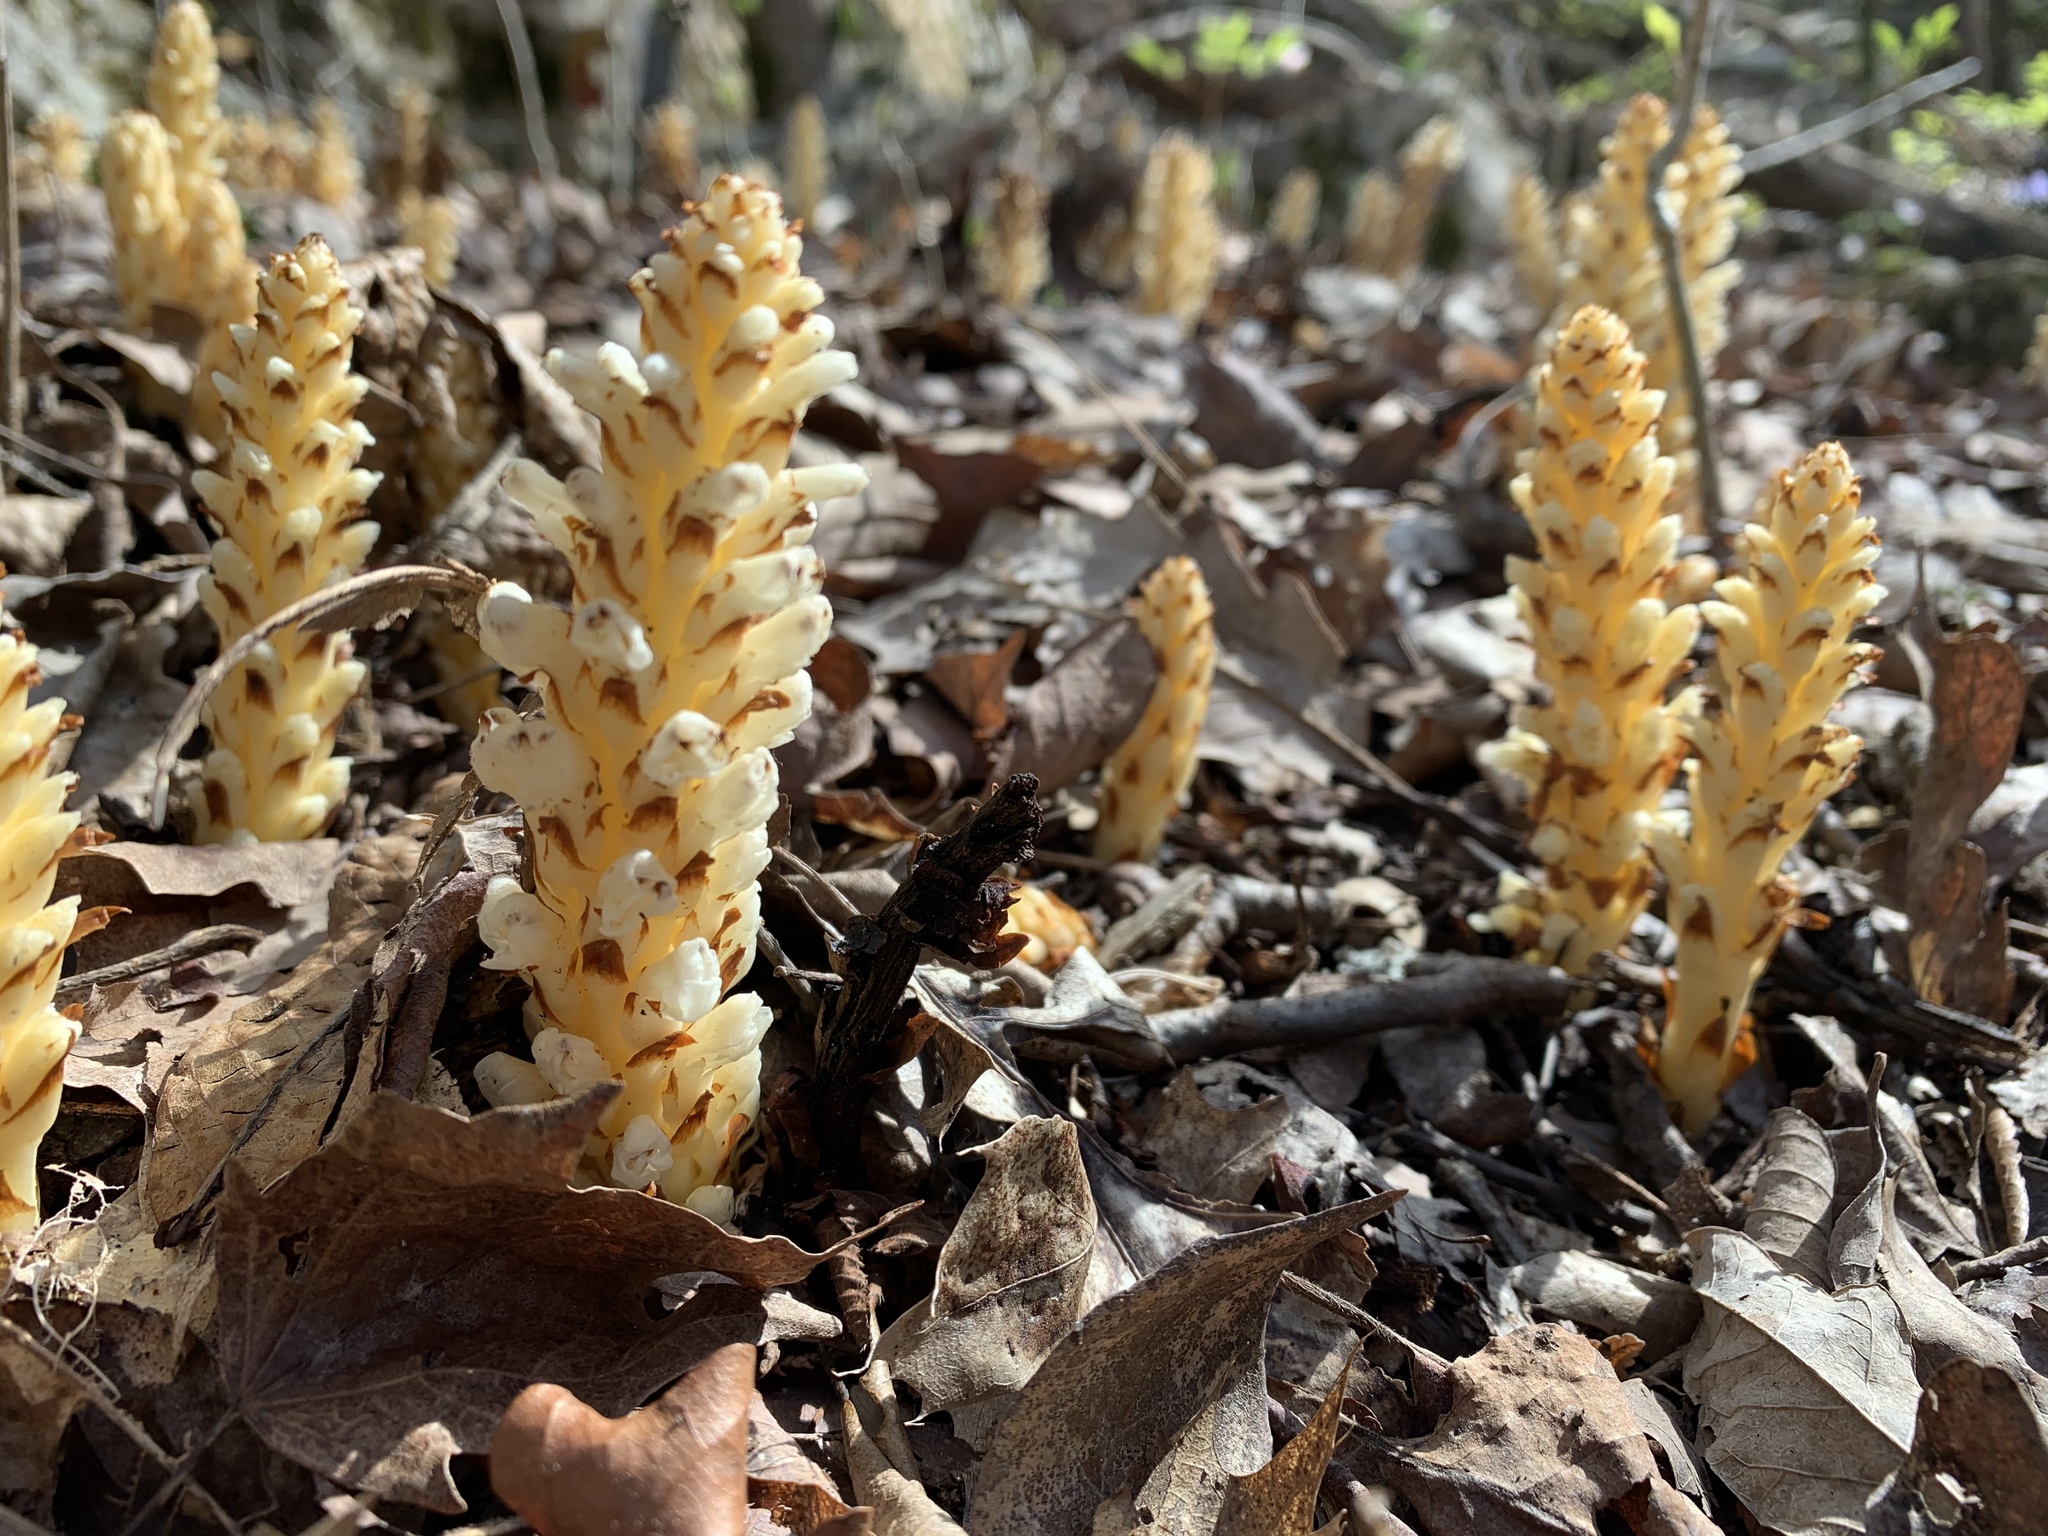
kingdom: Plantae
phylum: Tracheophyta
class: Magnoliopsida
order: Lamiales
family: Orobanchaceae
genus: Conopholis
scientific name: Conopholis americana
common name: American cancer-root
